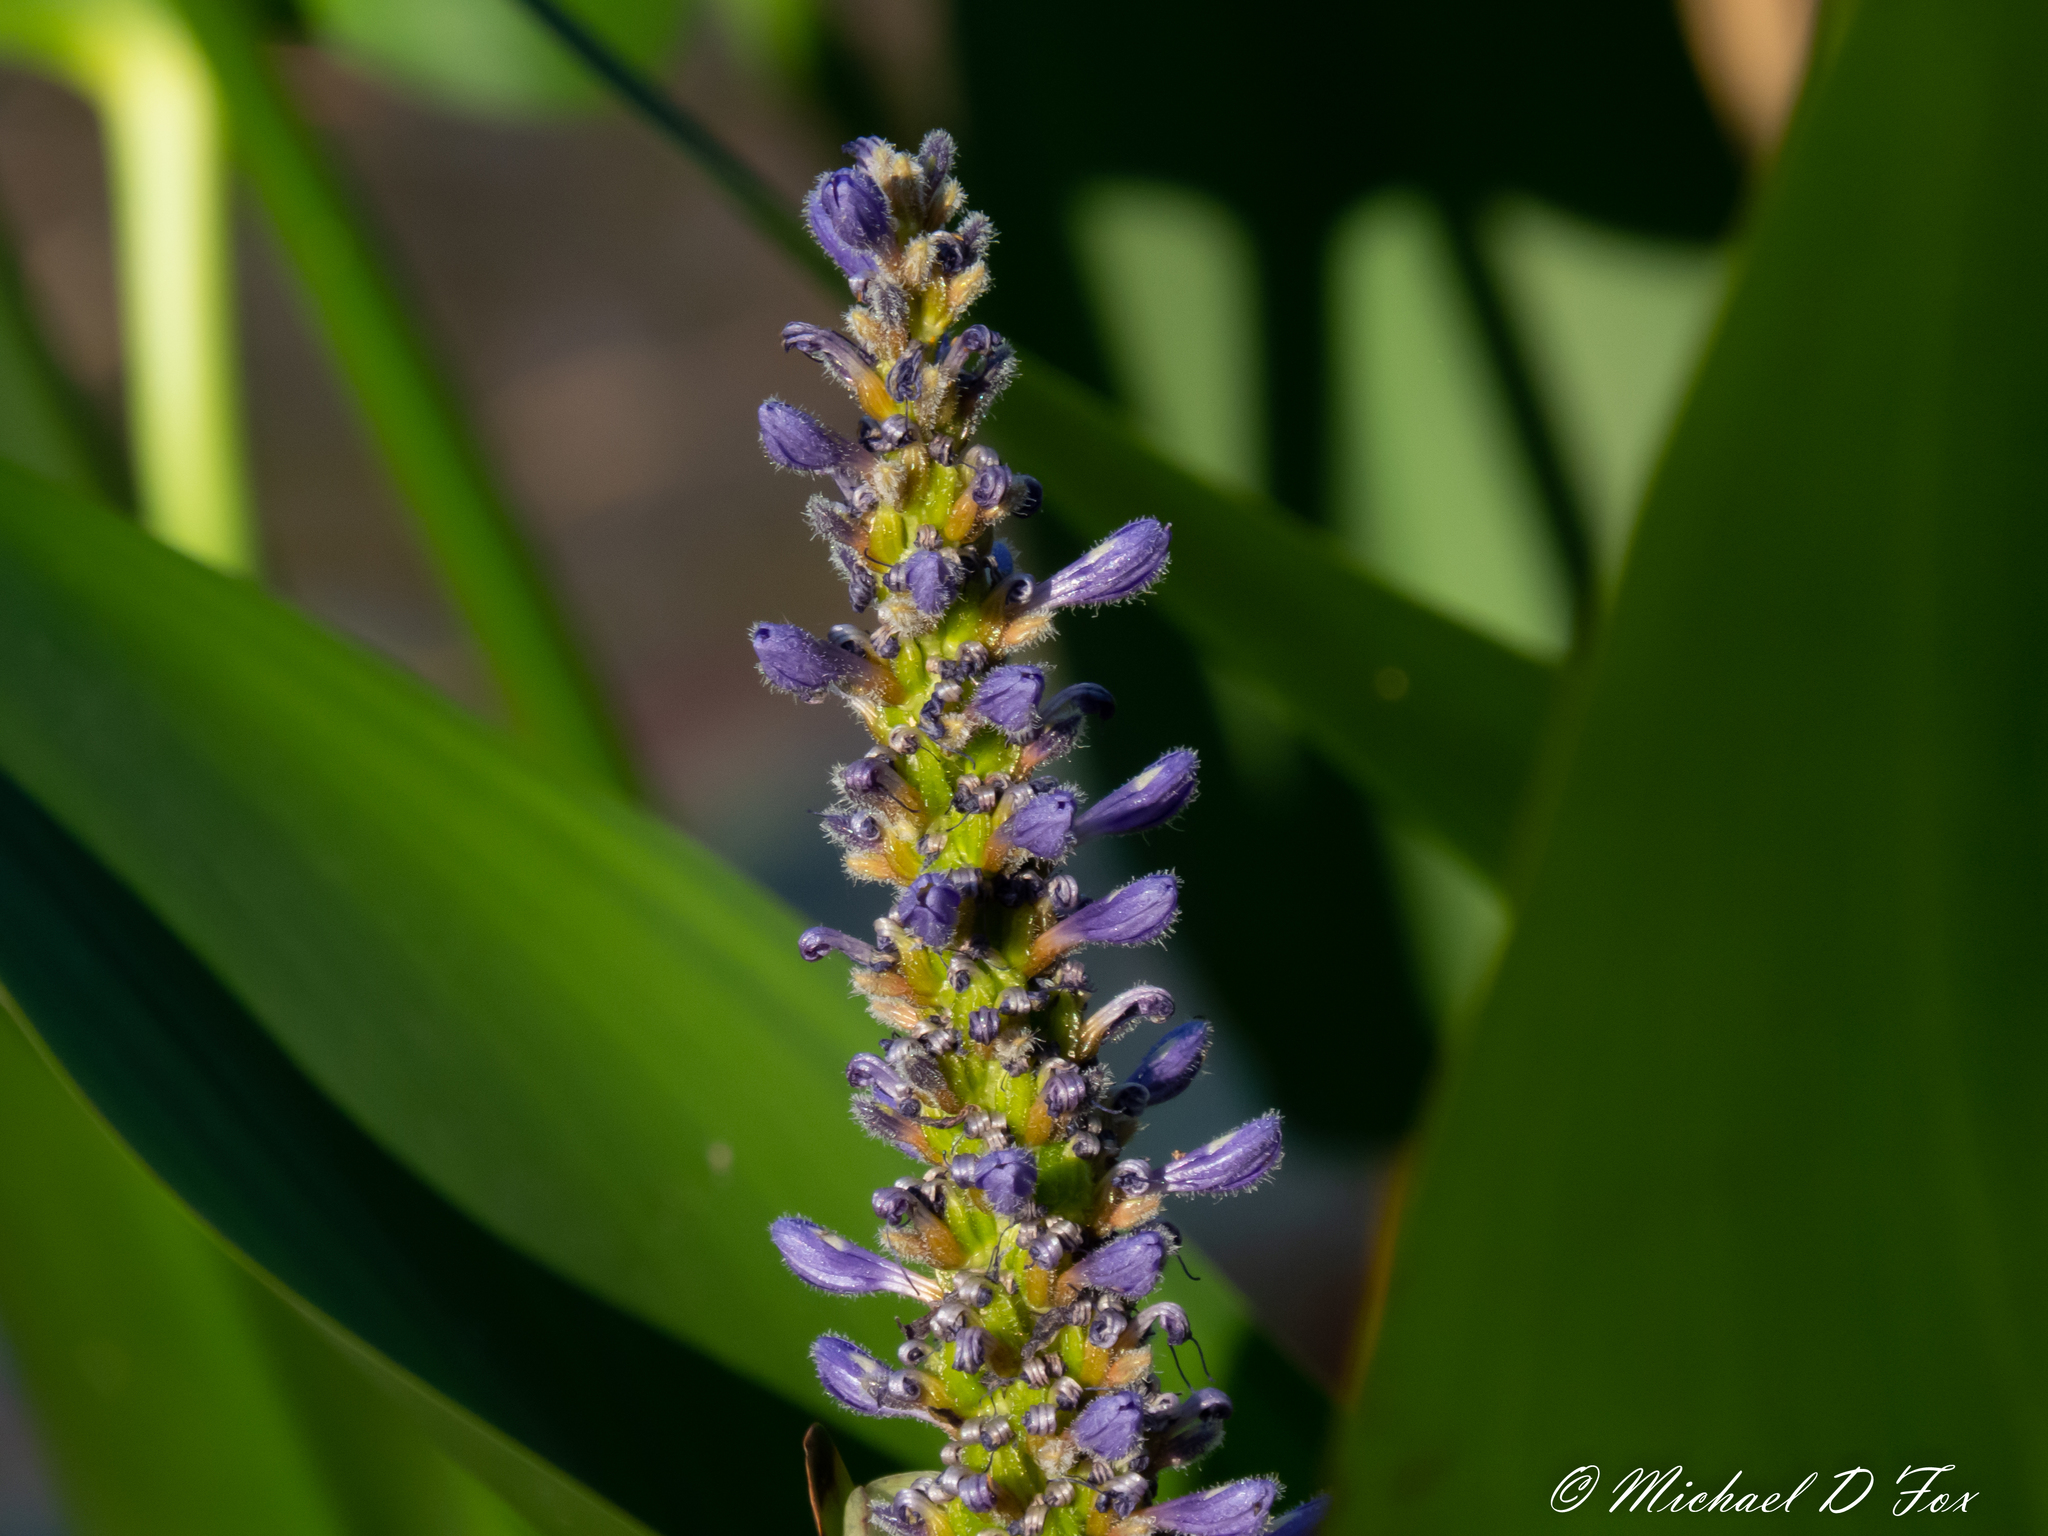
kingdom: Plantae
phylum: Tracheophyta
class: Liliopsida
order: Commelinales
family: Pontederiaceae
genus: Pontederia
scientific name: Pontederia cordata
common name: Pickerelweed
